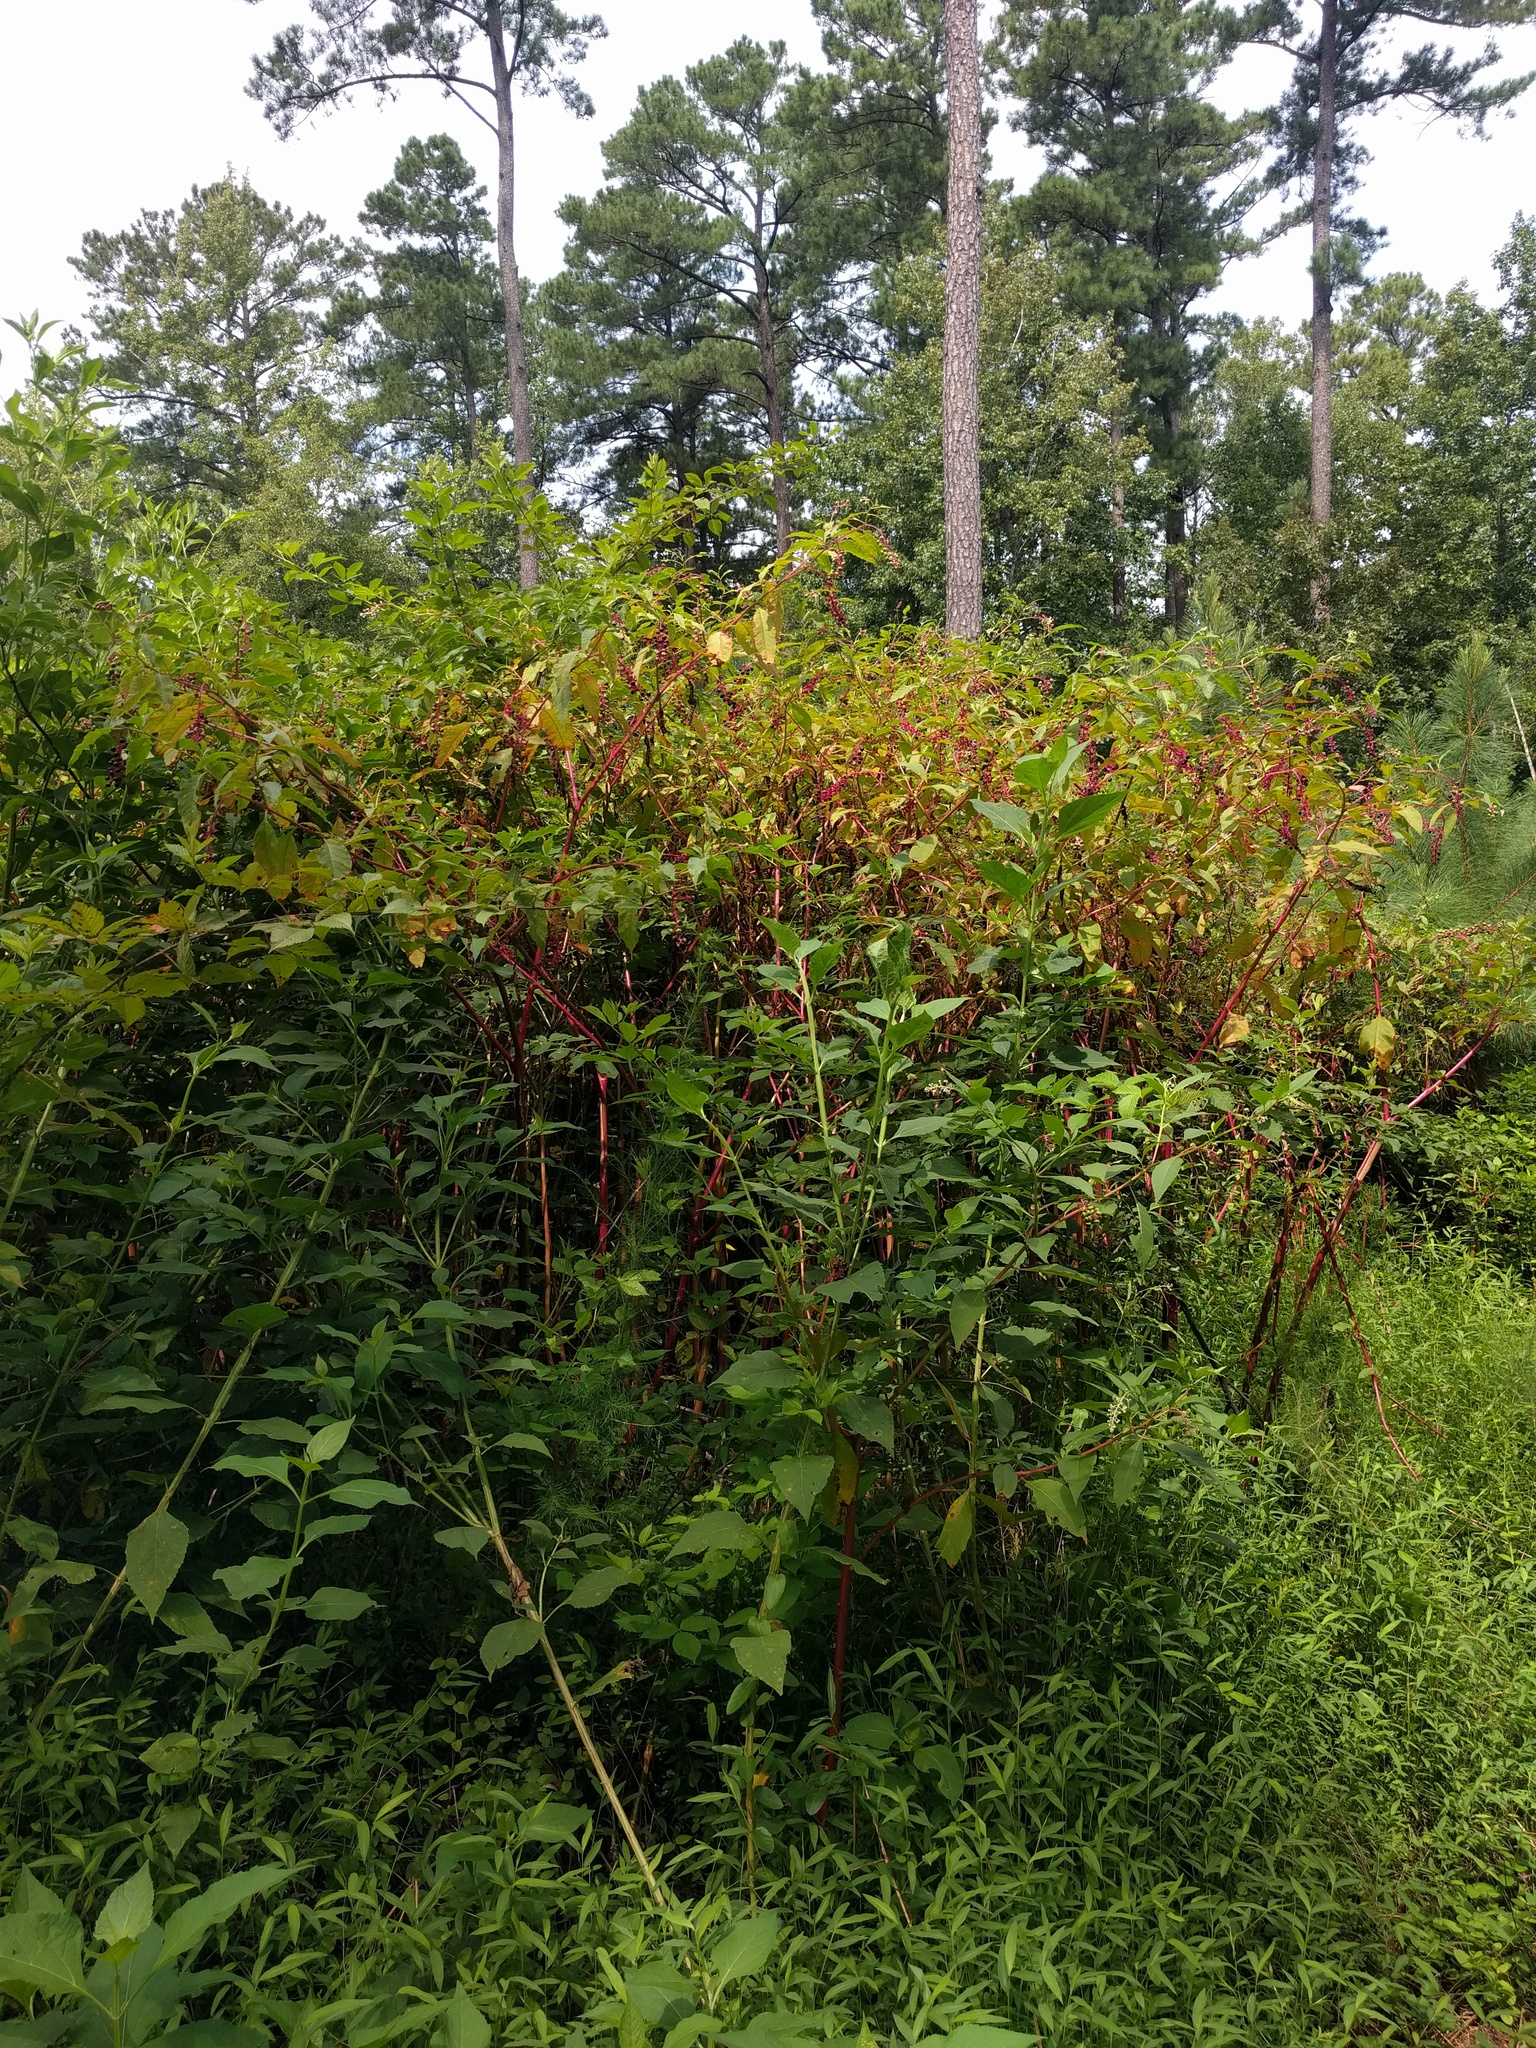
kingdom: Plantae
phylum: Tracheophyta
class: Magnoliopsida
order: Caryophyllales
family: Phytolaccaceae
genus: Phytolacca
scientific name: Phytolacca americana
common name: American pokeweed
